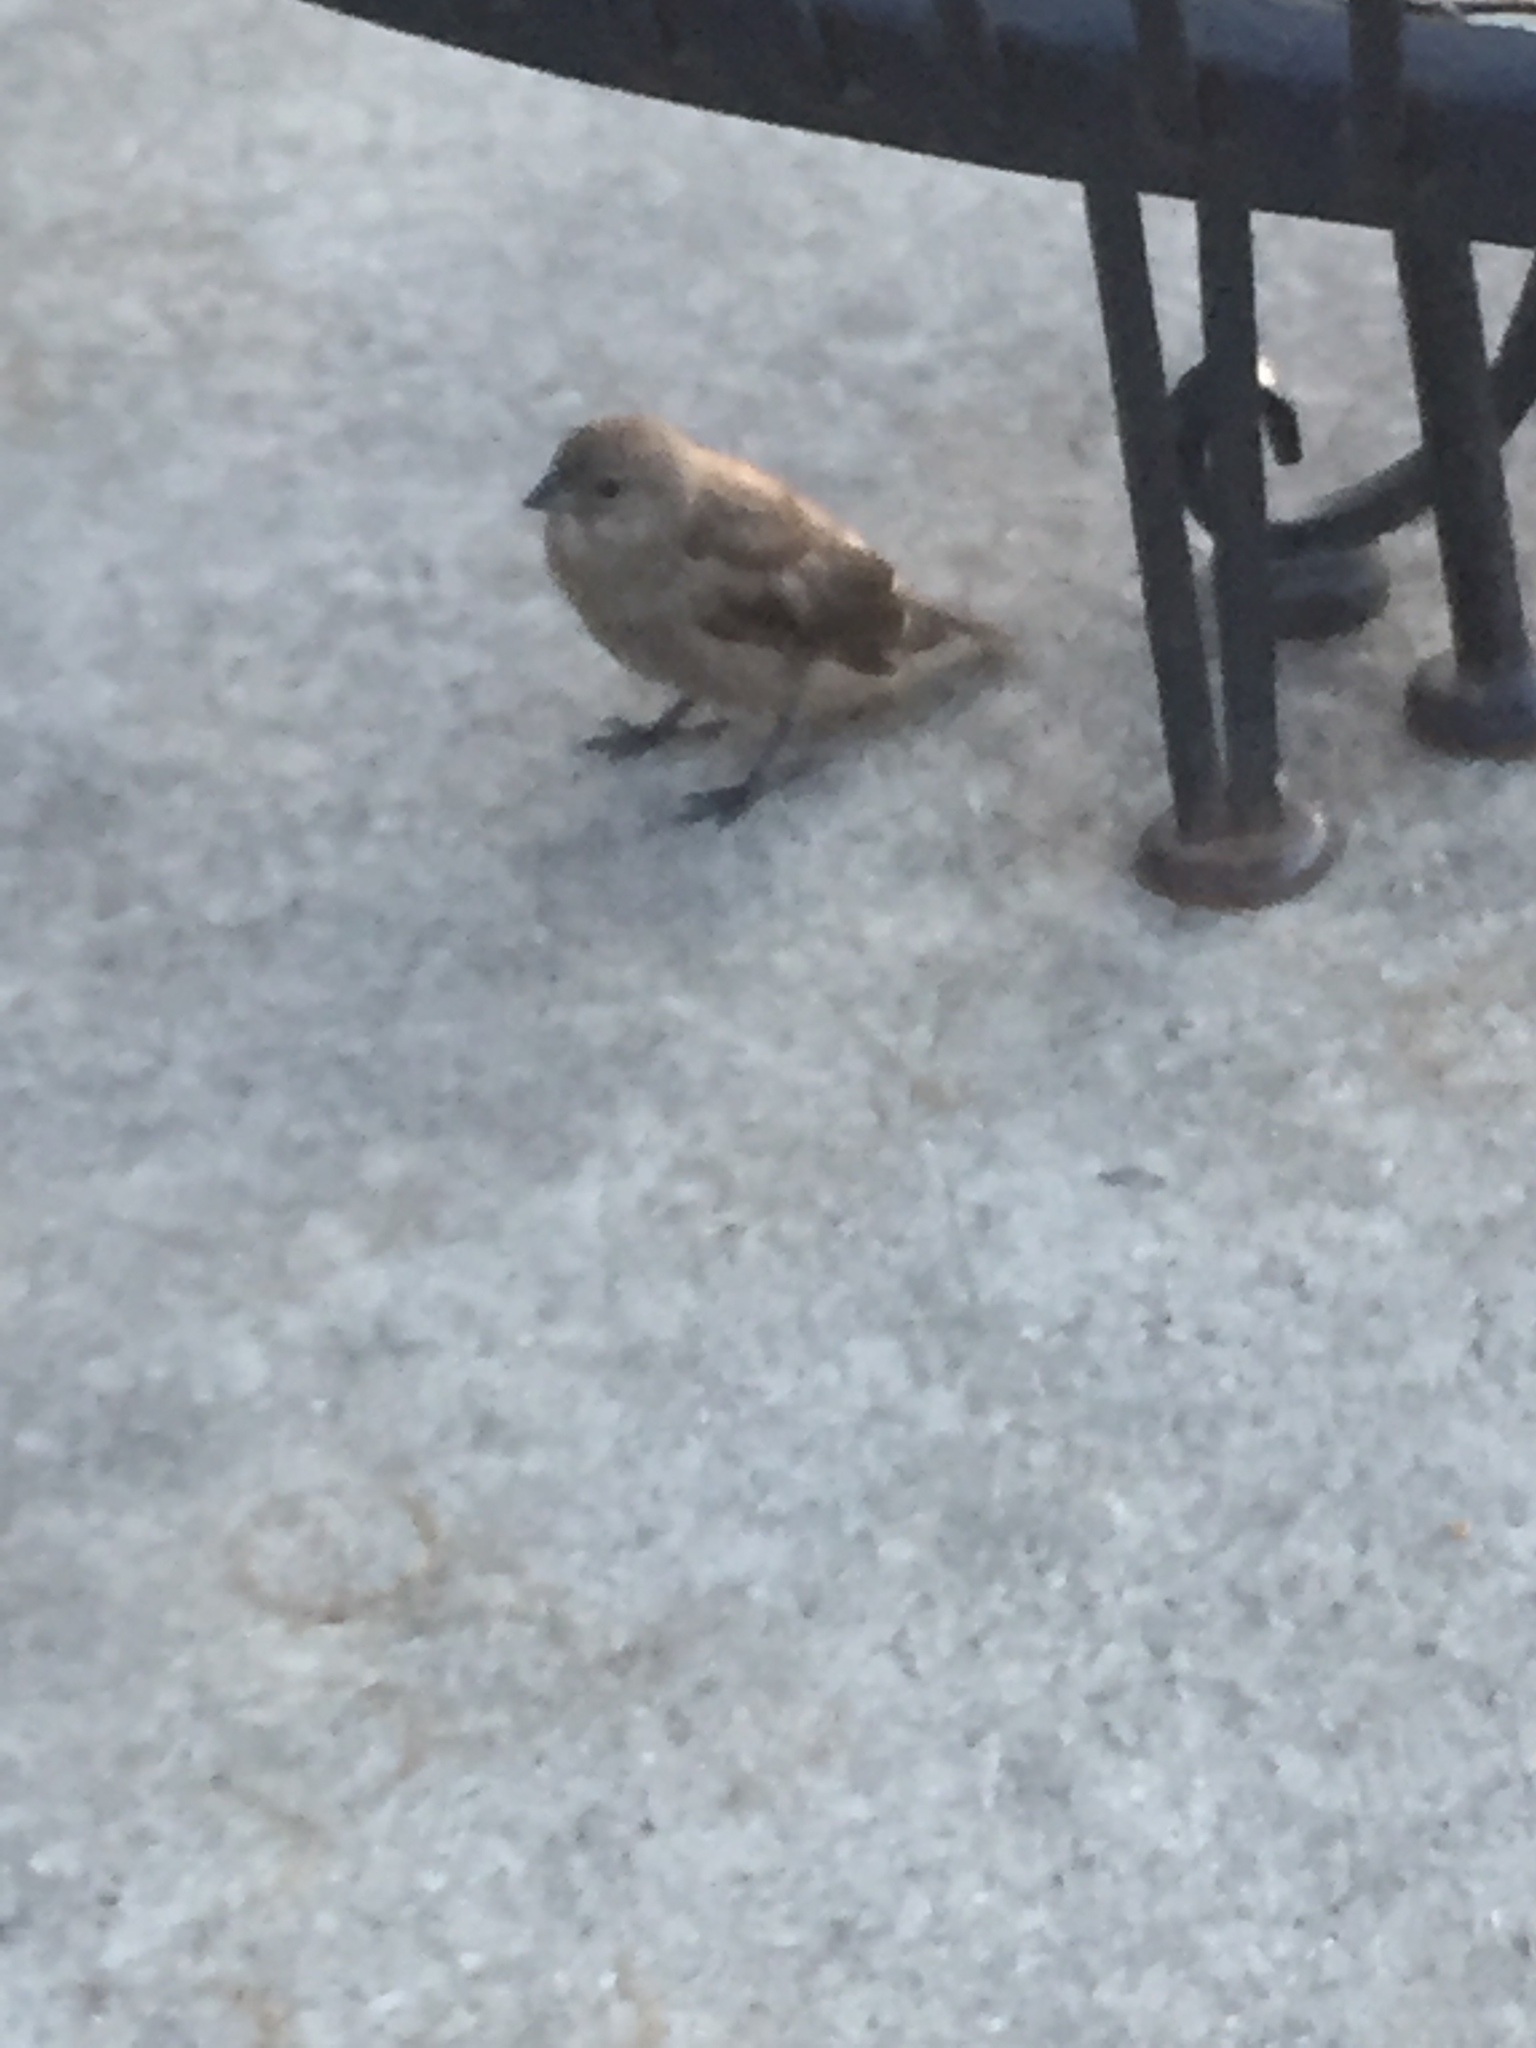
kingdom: Animalia
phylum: Chordata
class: Aves
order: Passeriformes
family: Passeridae
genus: Passer
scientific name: Passer domesticus
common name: House sparrow
